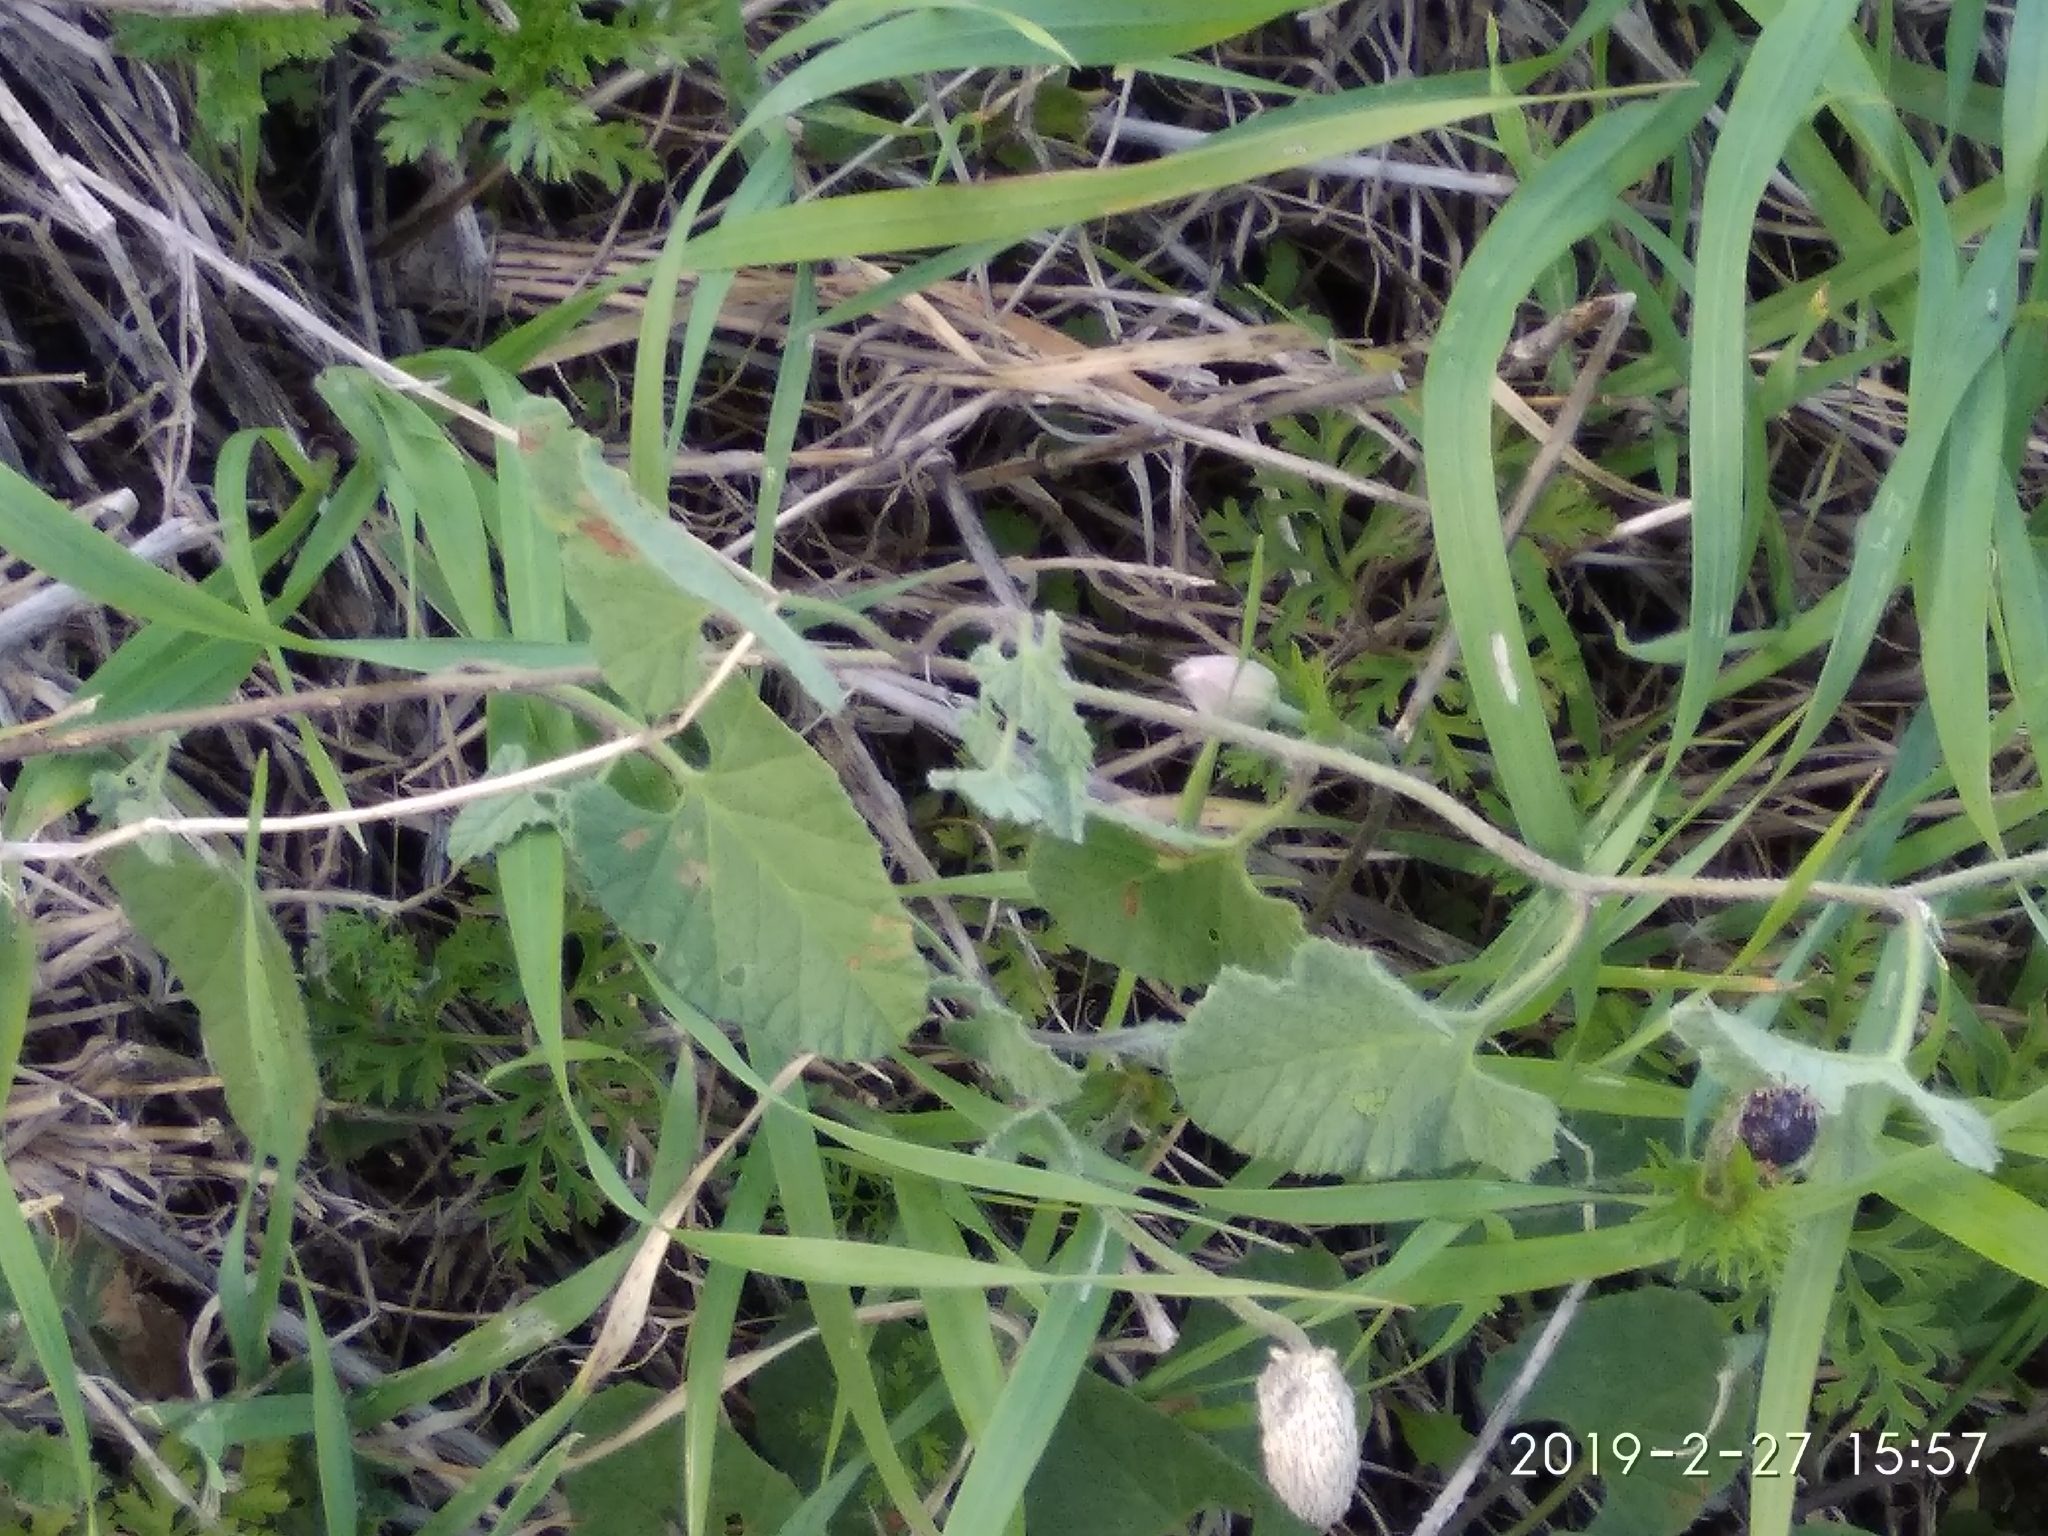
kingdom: Plantae
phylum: Tracheophyta
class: Magnoliopsida
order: Solanales
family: Convolvulaceae
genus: Convolvulus
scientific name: Convolvulus althaeoides
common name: Mallow bindweed
